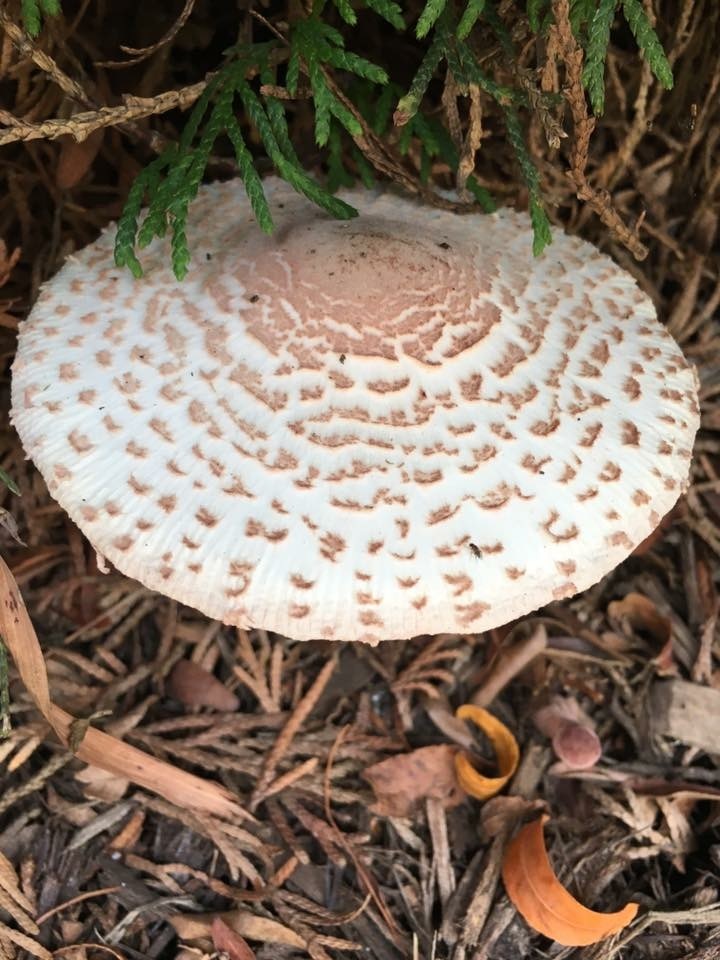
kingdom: Fungi
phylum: Basidiomycota
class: Agaricomycetes
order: Agaricales
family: Agaricaceae
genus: Leucoagaricus
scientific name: Leucoagaricus americanus
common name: Reddening lepiota
